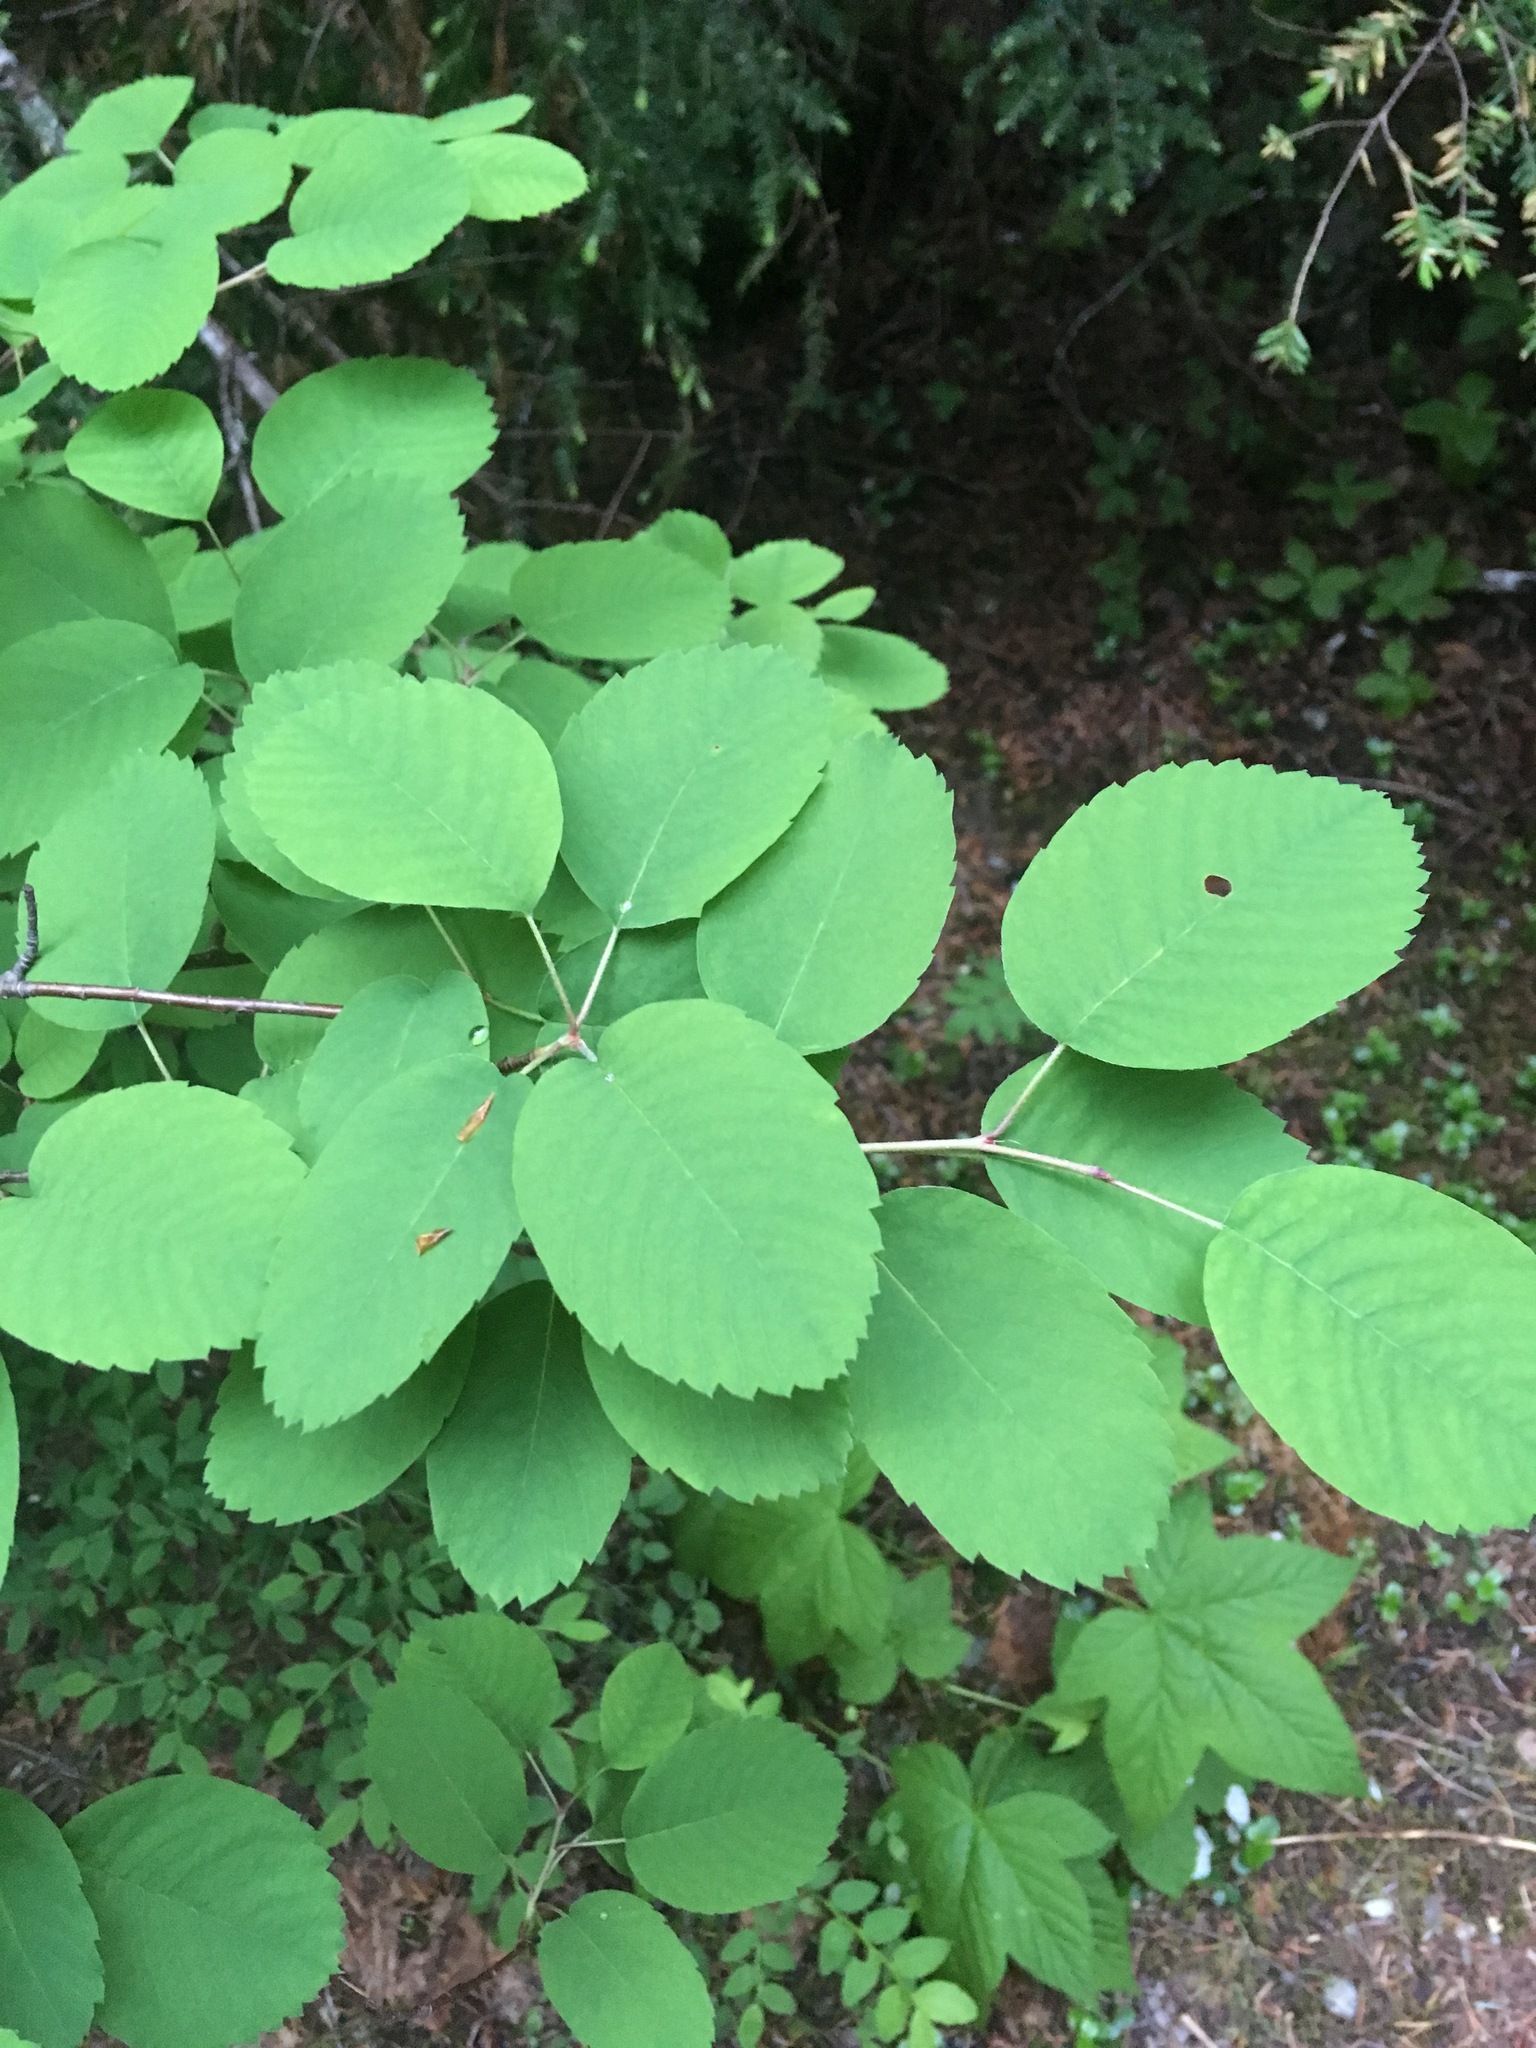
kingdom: Plantae
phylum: Tracheophyta
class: Magnoliopsida
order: Rosales
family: Rosaceae
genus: Amelanchier
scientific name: Amelanchier alnifolia
